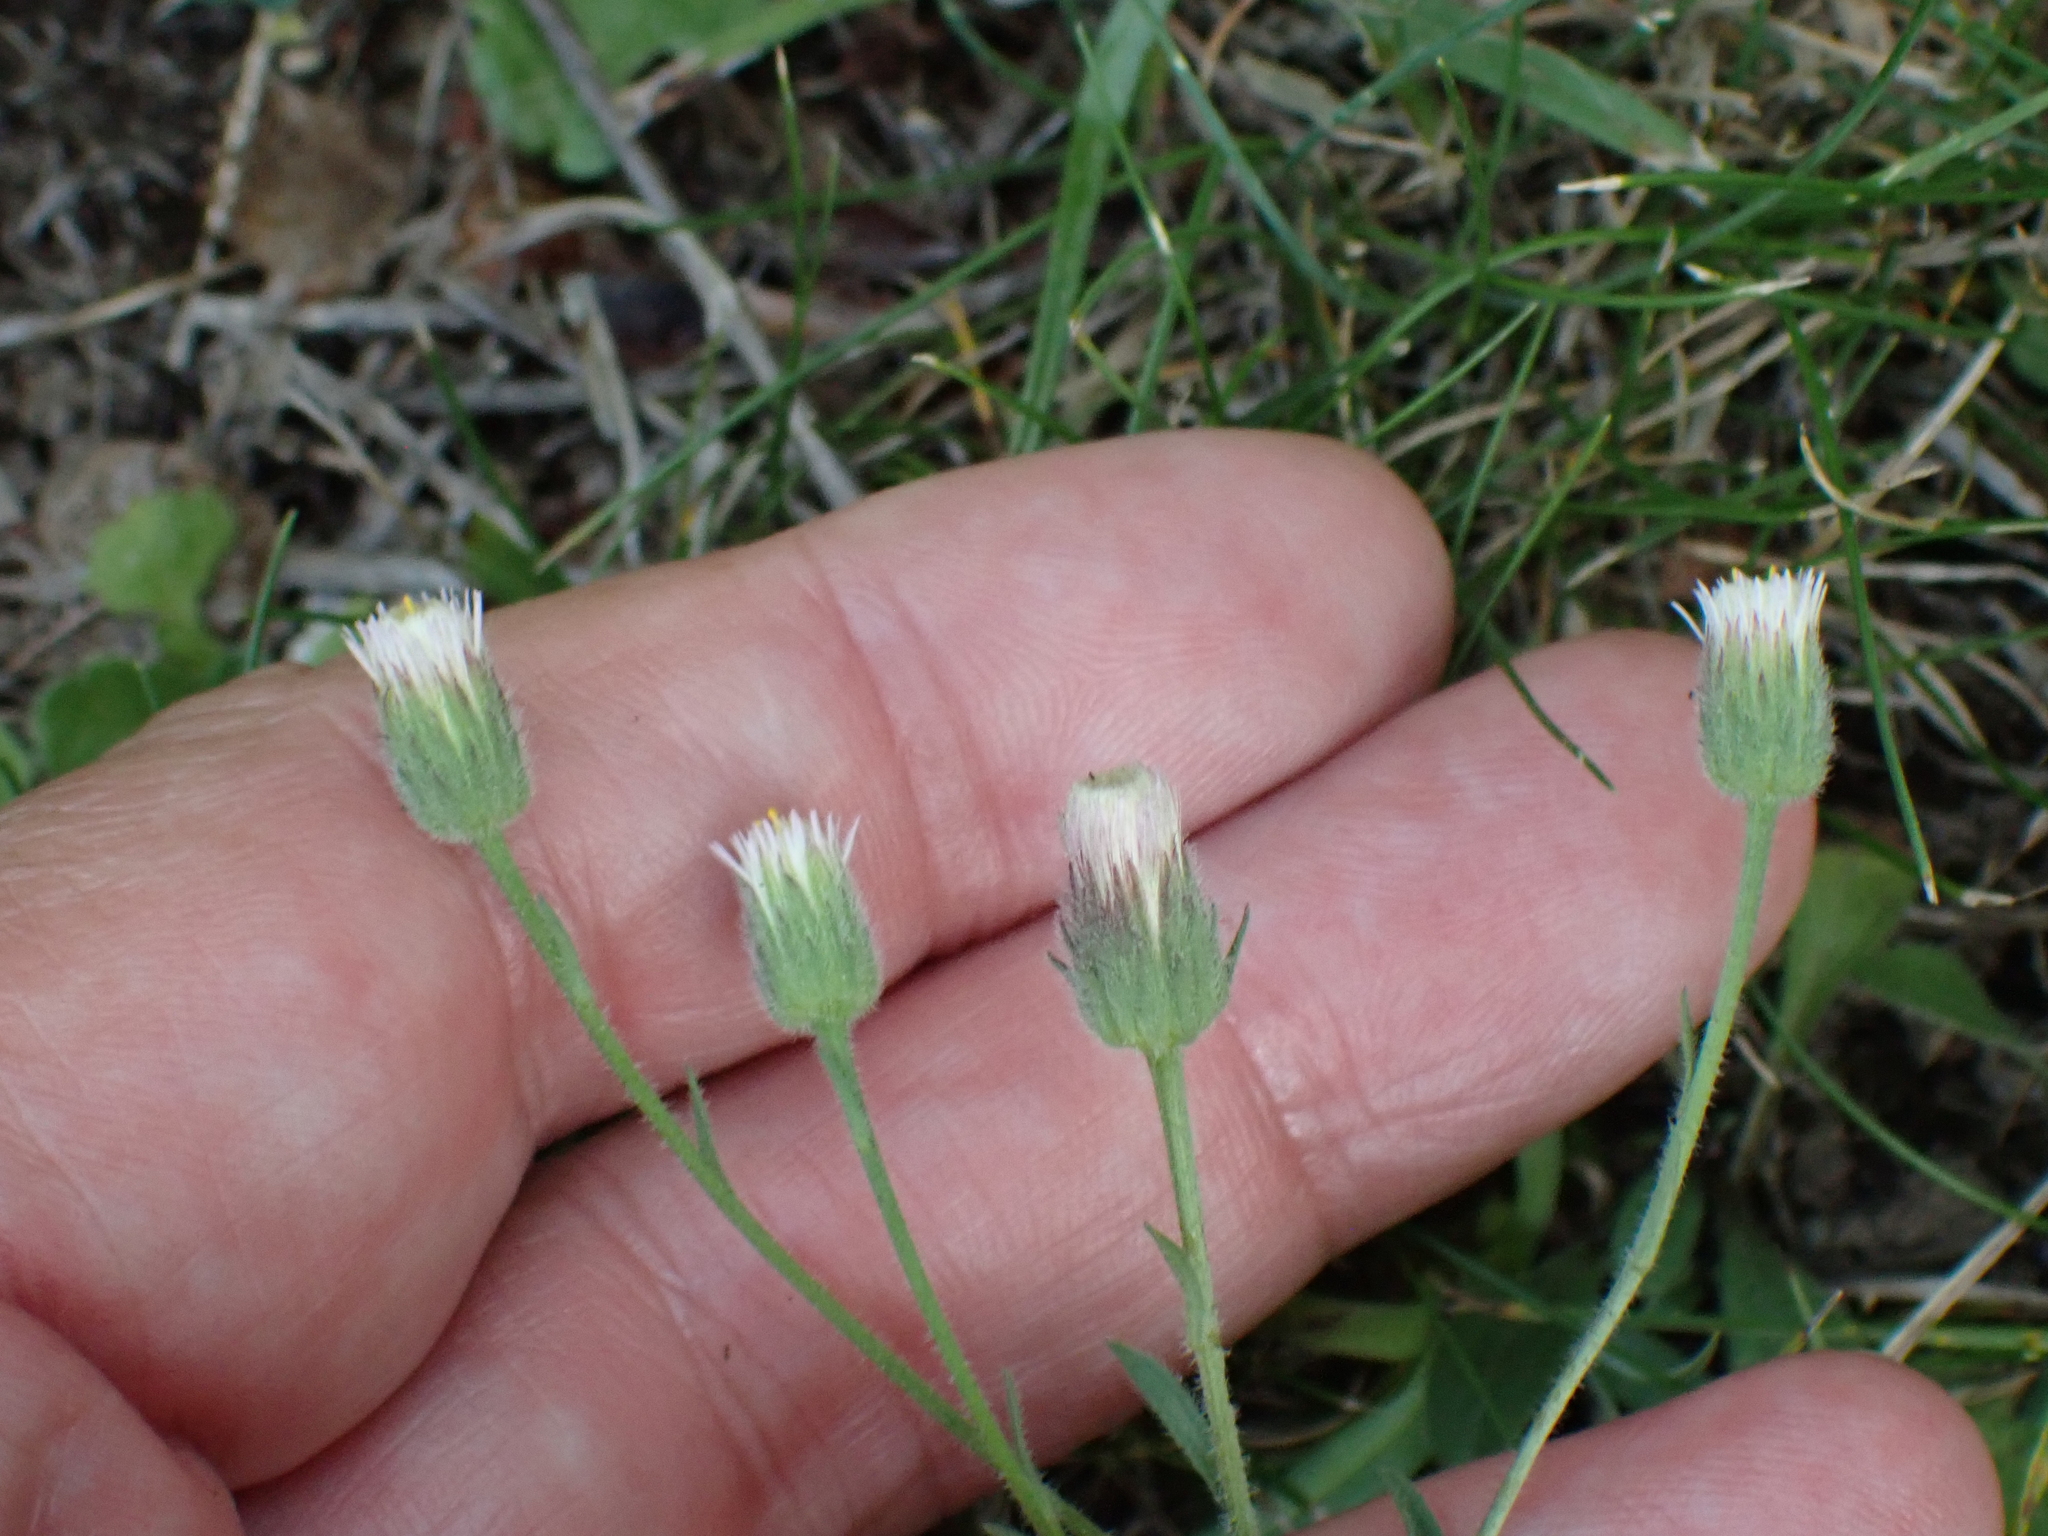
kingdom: Plantae
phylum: Tracheophyta
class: Magnoliopsida
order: Asterales
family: Asteraceae
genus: Erigeron
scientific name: Erigeron acris
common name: Blue fleabane
